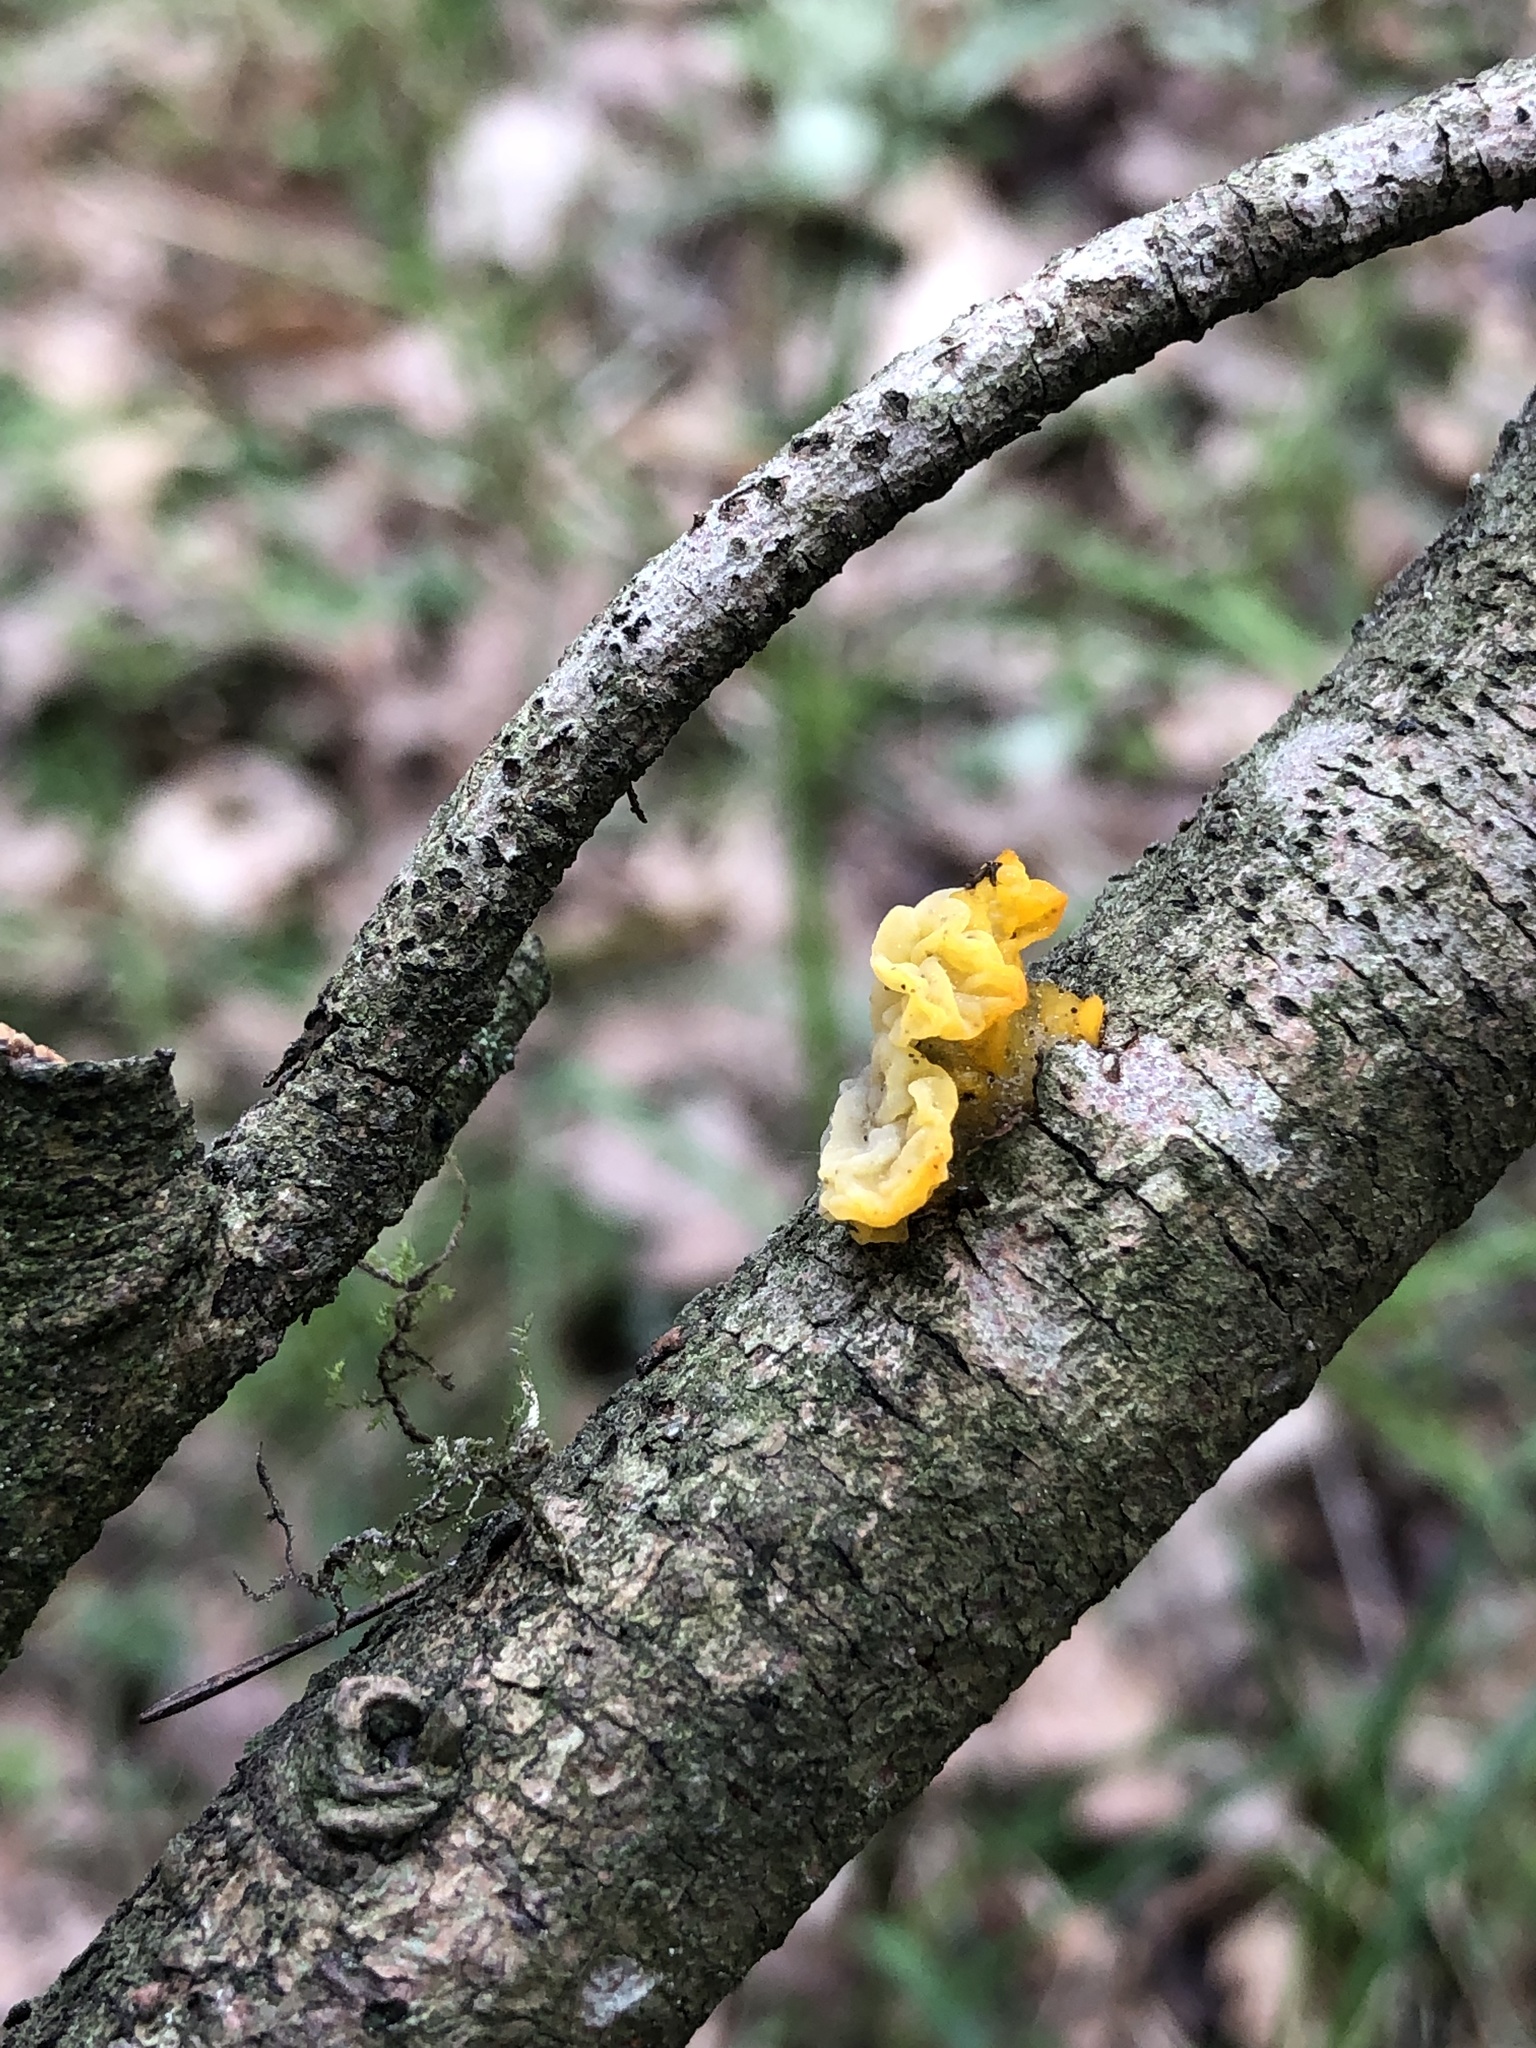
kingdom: Fungi
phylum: Basidiomycota
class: Tremellomycetes
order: Tremellales
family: Tremellaceae
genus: Tremella
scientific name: Tremella mesenterica
